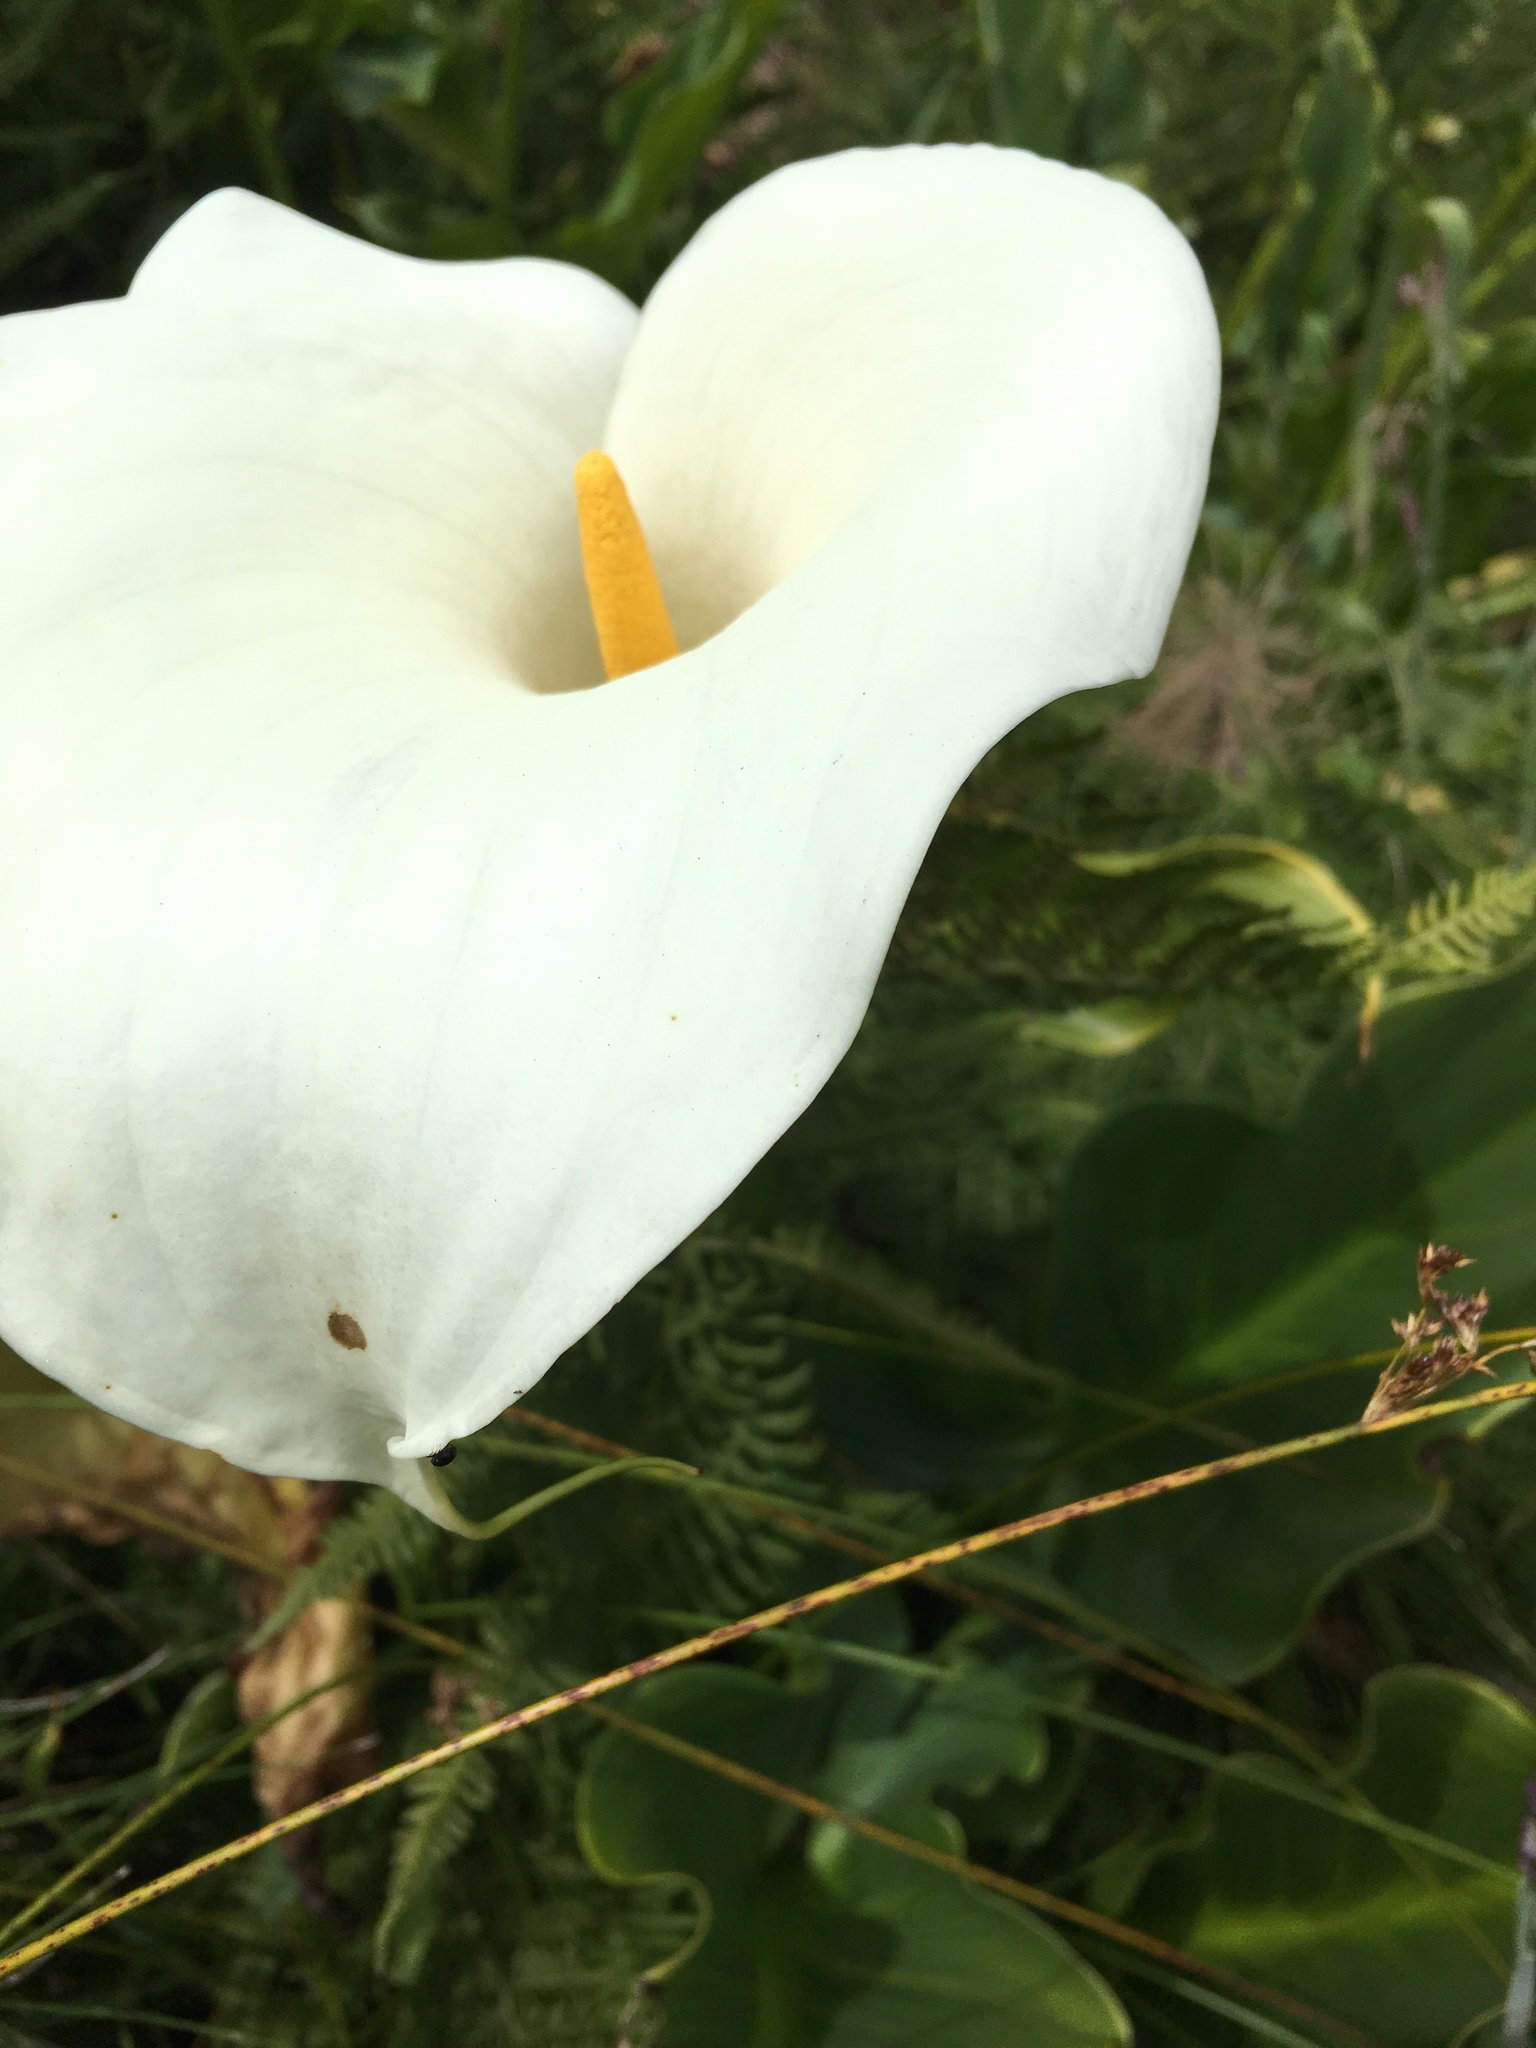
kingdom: Plantae
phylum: Tracheophyta
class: Liliopsida
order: Alismatales
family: Araceae
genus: Zantedeschia
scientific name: Zantedeschia aethiopica
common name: Altar-lily
